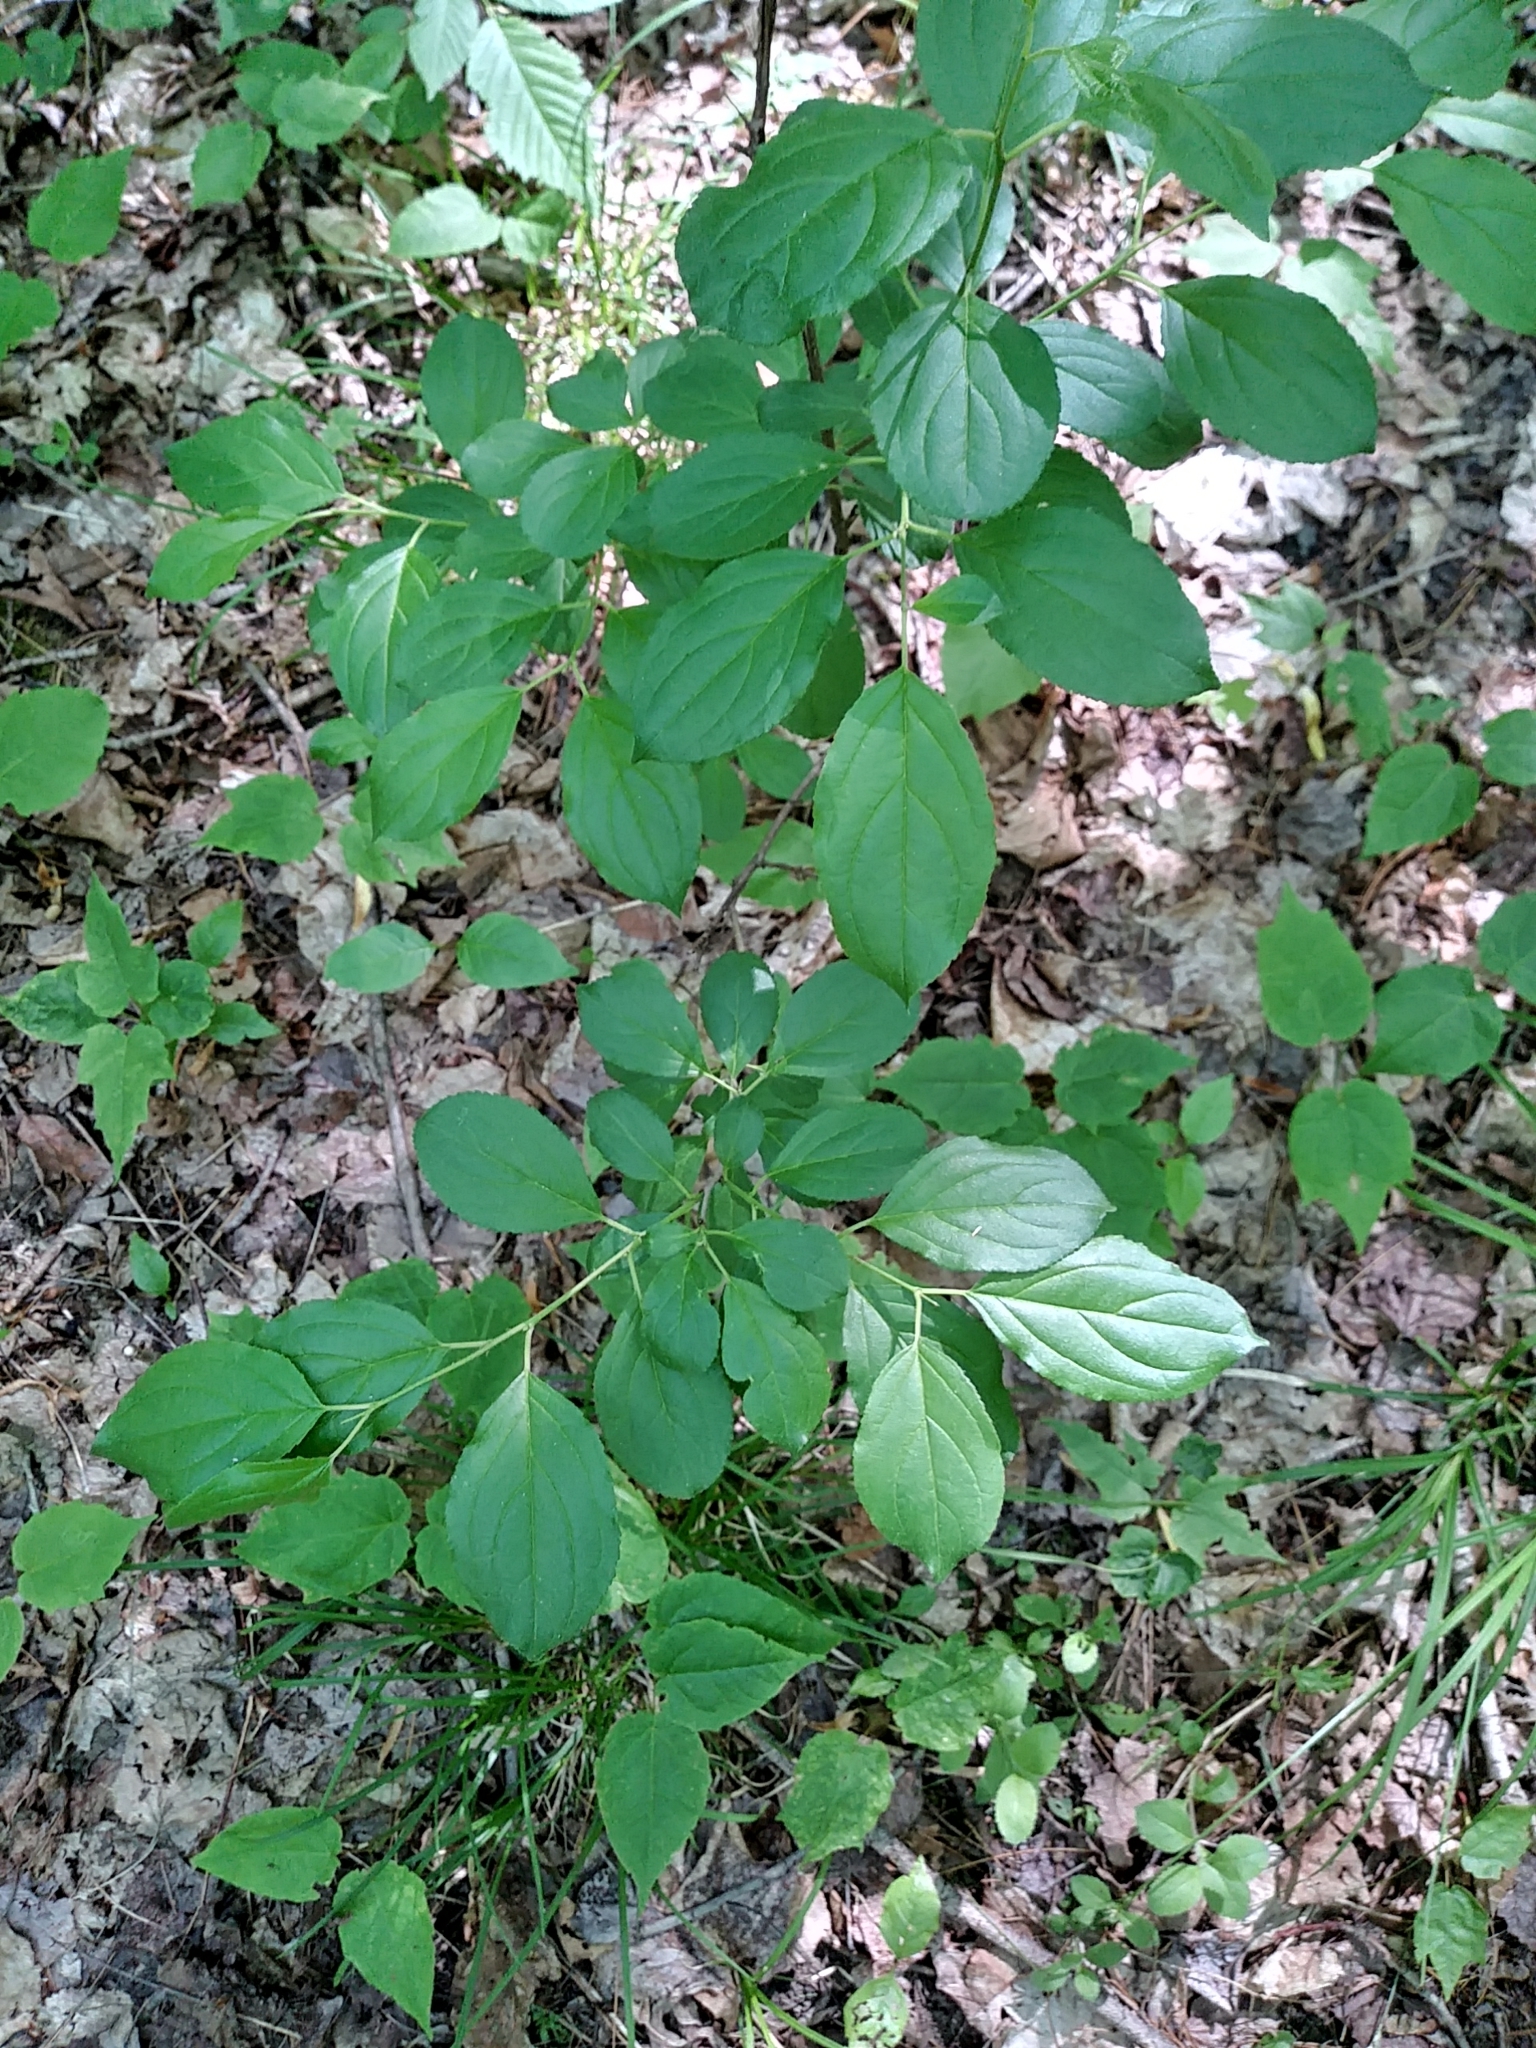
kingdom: Plantae
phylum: Tracheophyta
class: Magnoliopsida
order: Rosales
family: Rhamnaceae
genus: Rhamnus
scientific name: Rhamnus cathartica
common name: Common buckthorn
